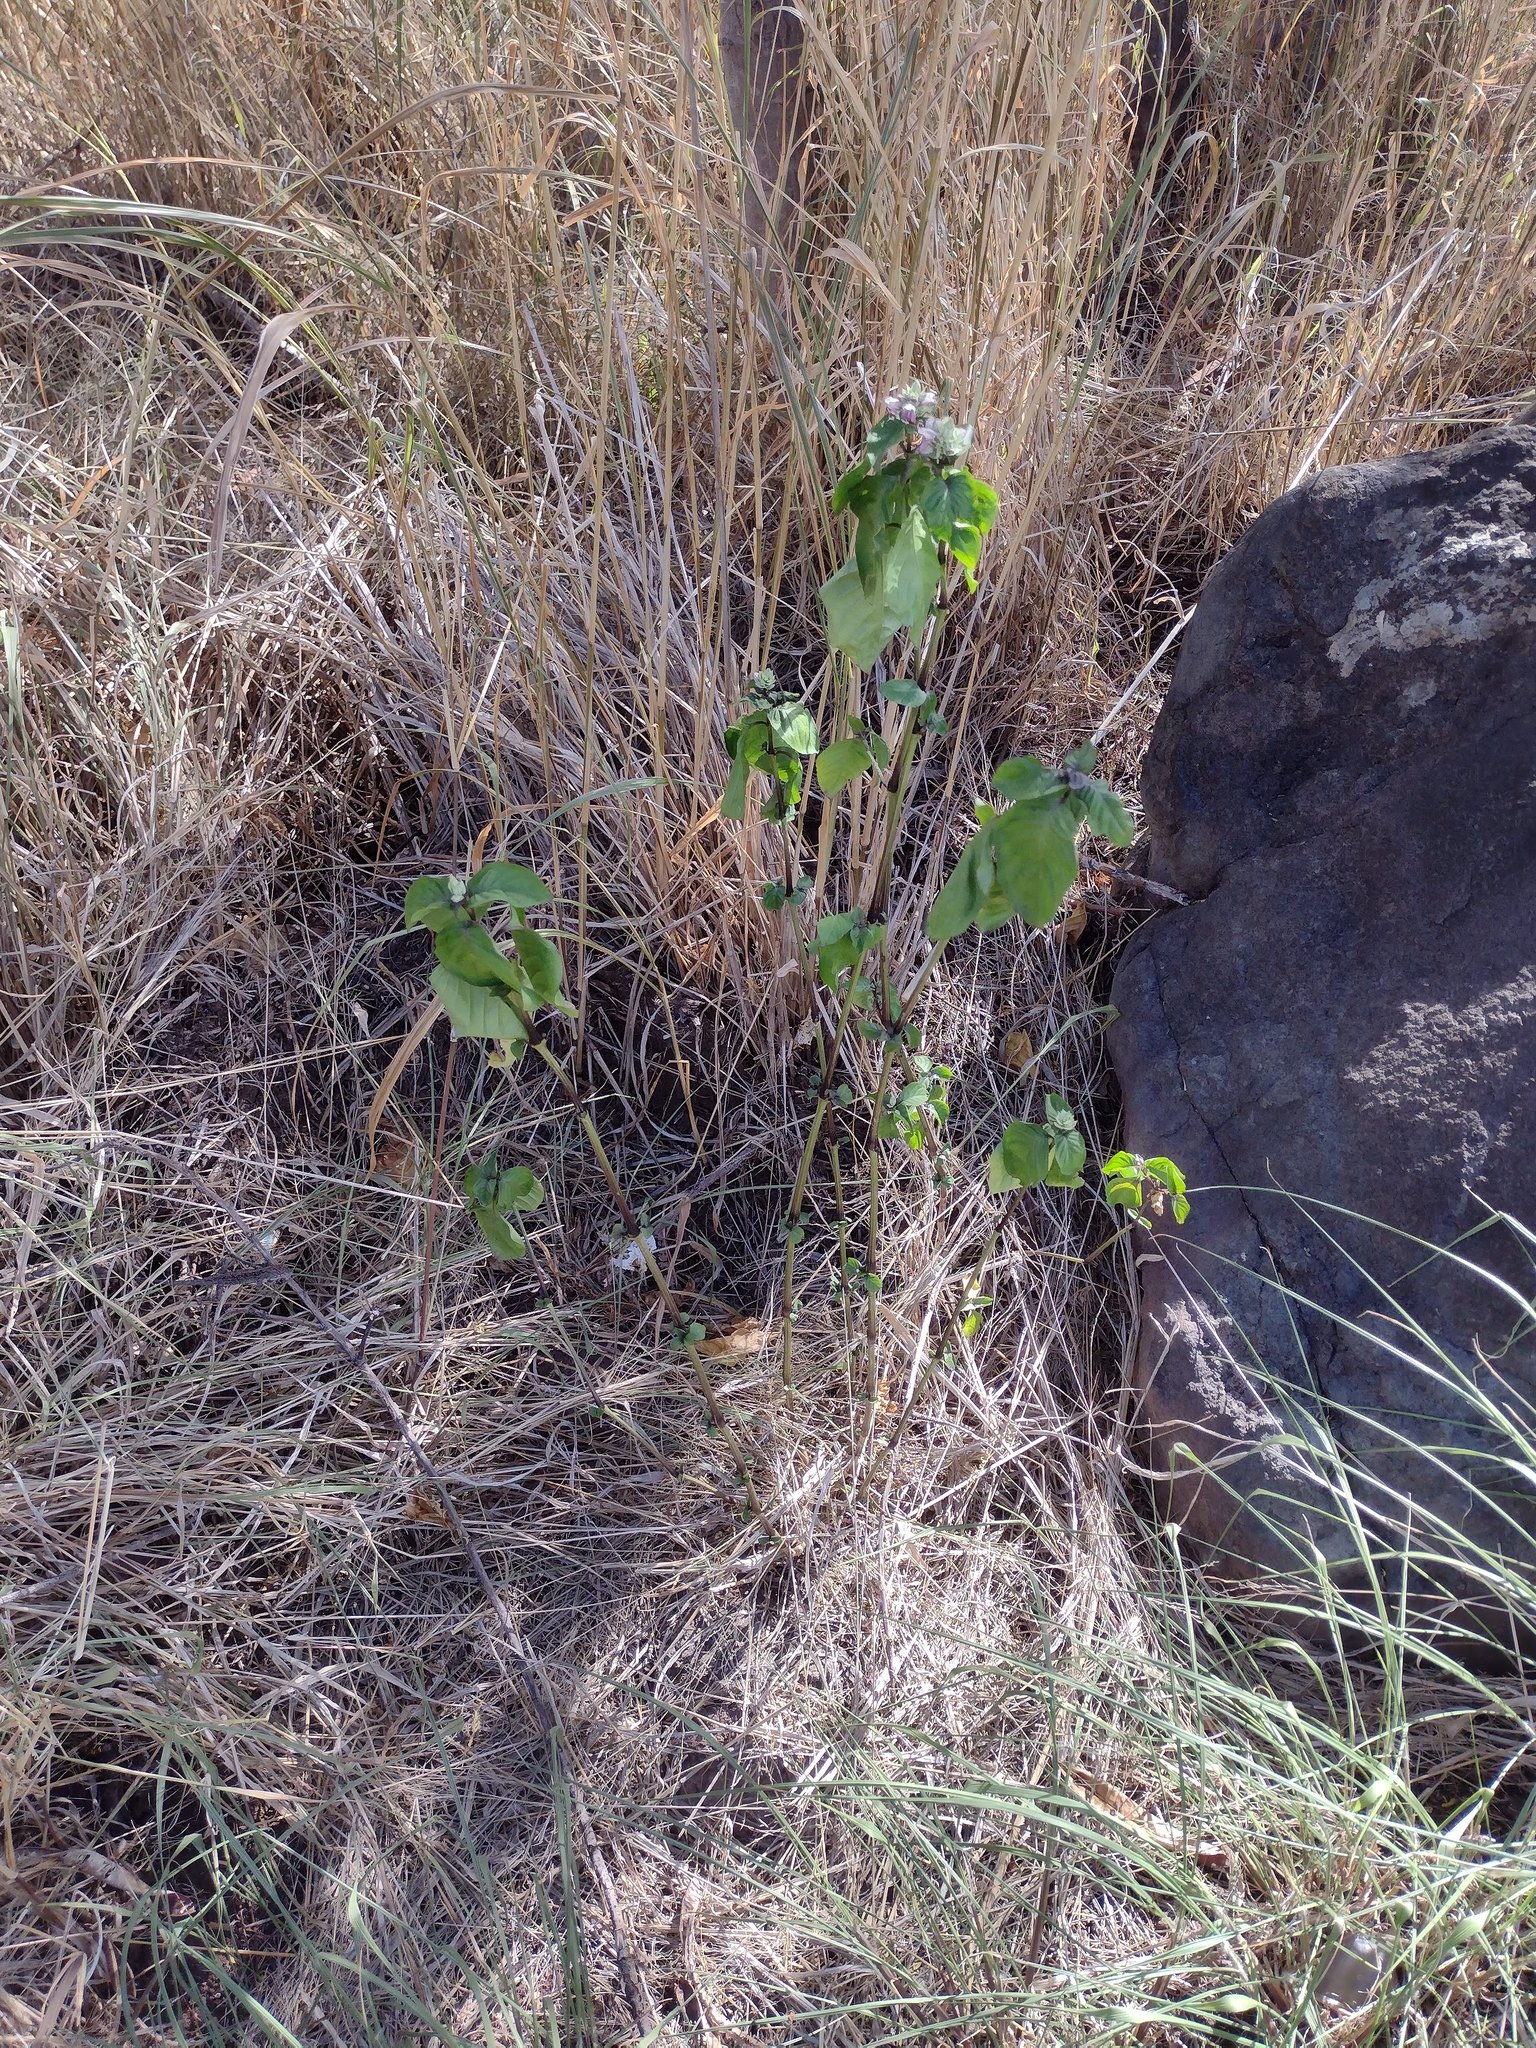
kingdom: Plantae
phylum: Tracheophyta
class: Magnoliopsida
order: Lamiales
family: Acanthaceae
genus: Justicia
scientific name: Justicia betonica
